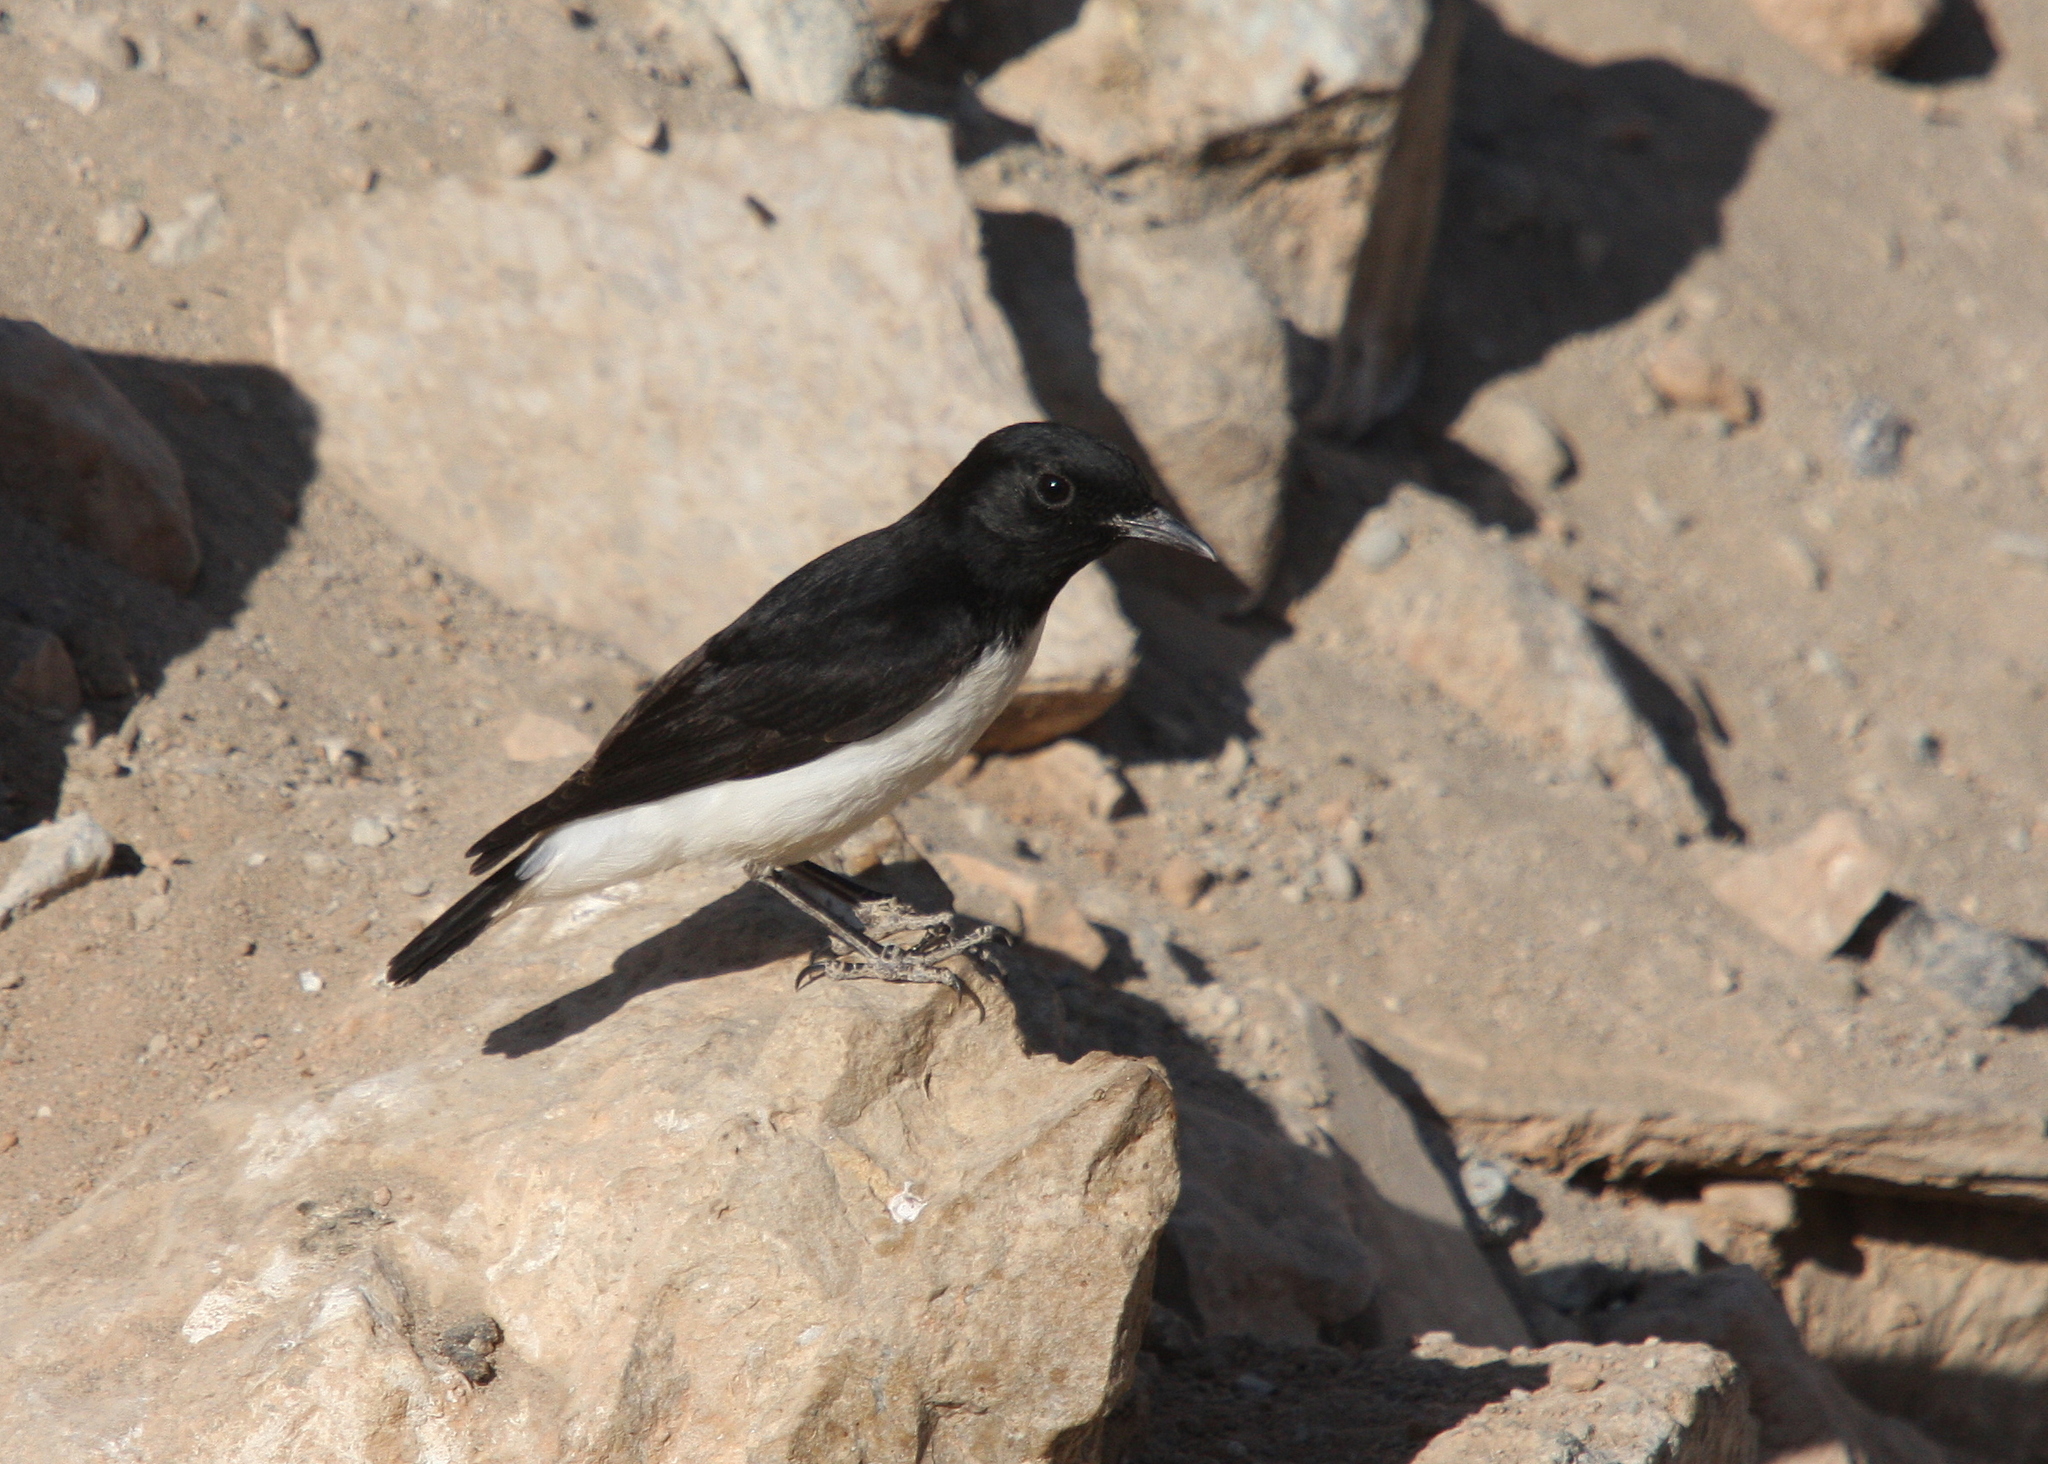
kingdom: Animalia
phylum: Chordata
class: Aves
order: Passeriformes
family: Muscicapidae
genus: Oenanthe
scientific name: Oenanthe albonigra
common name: Hume's wheatear
